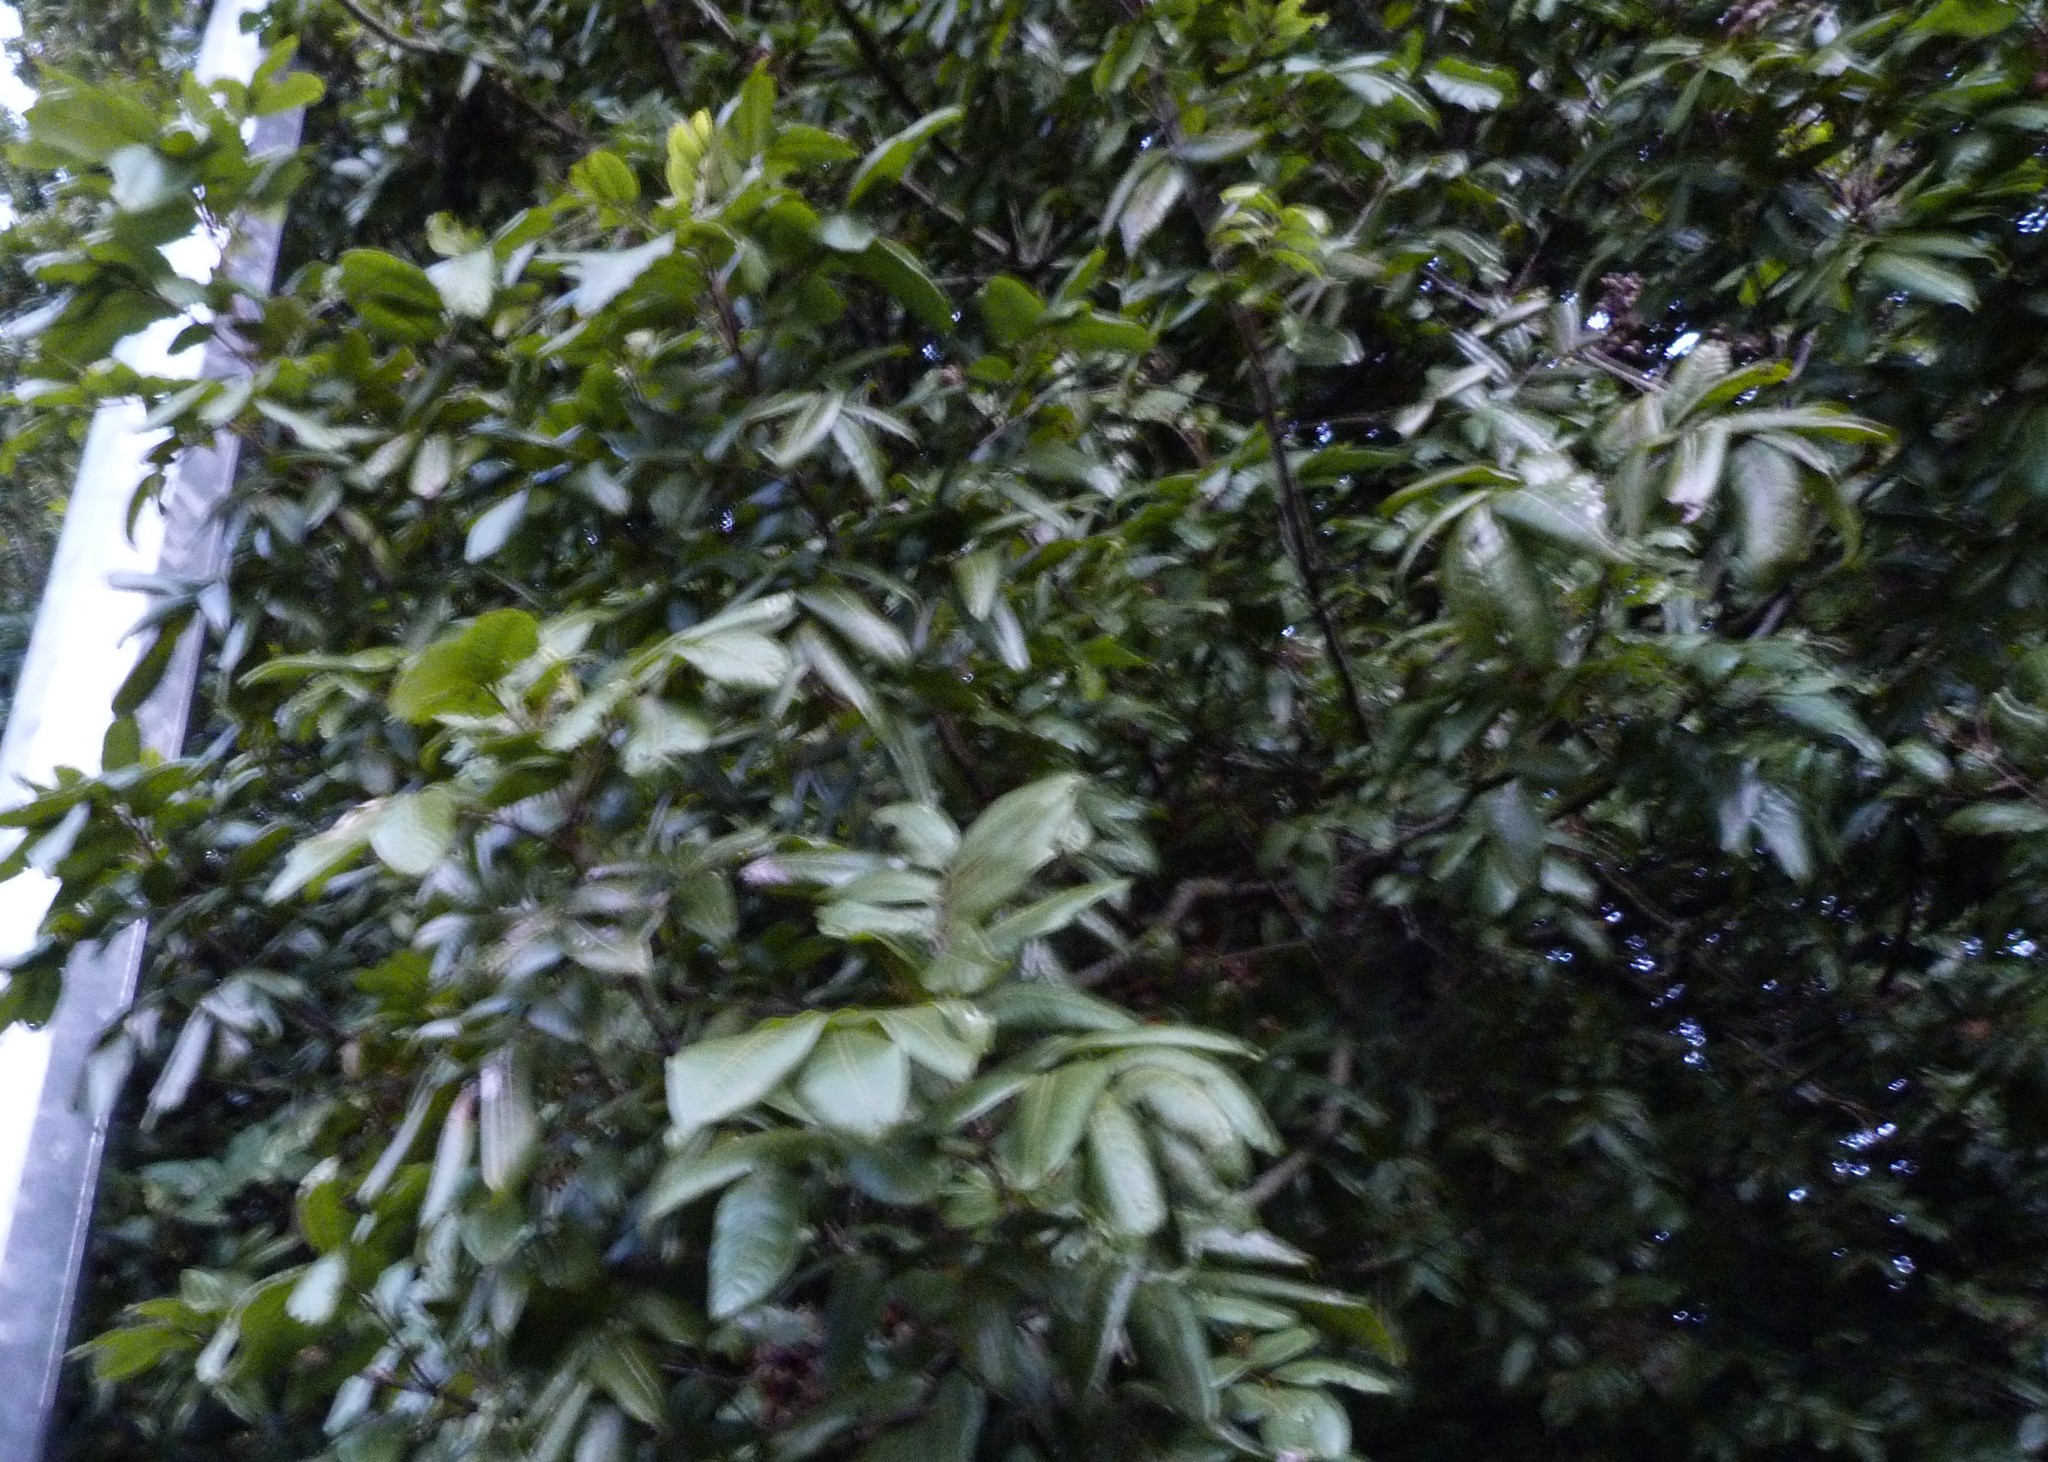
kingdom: Plantae
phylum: Tracheophyta
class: Magnoliopsida
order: Sapindales
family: Sapindaceae
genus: Alectryon
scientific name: Alectryon excelsus
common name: Three kings titoki
